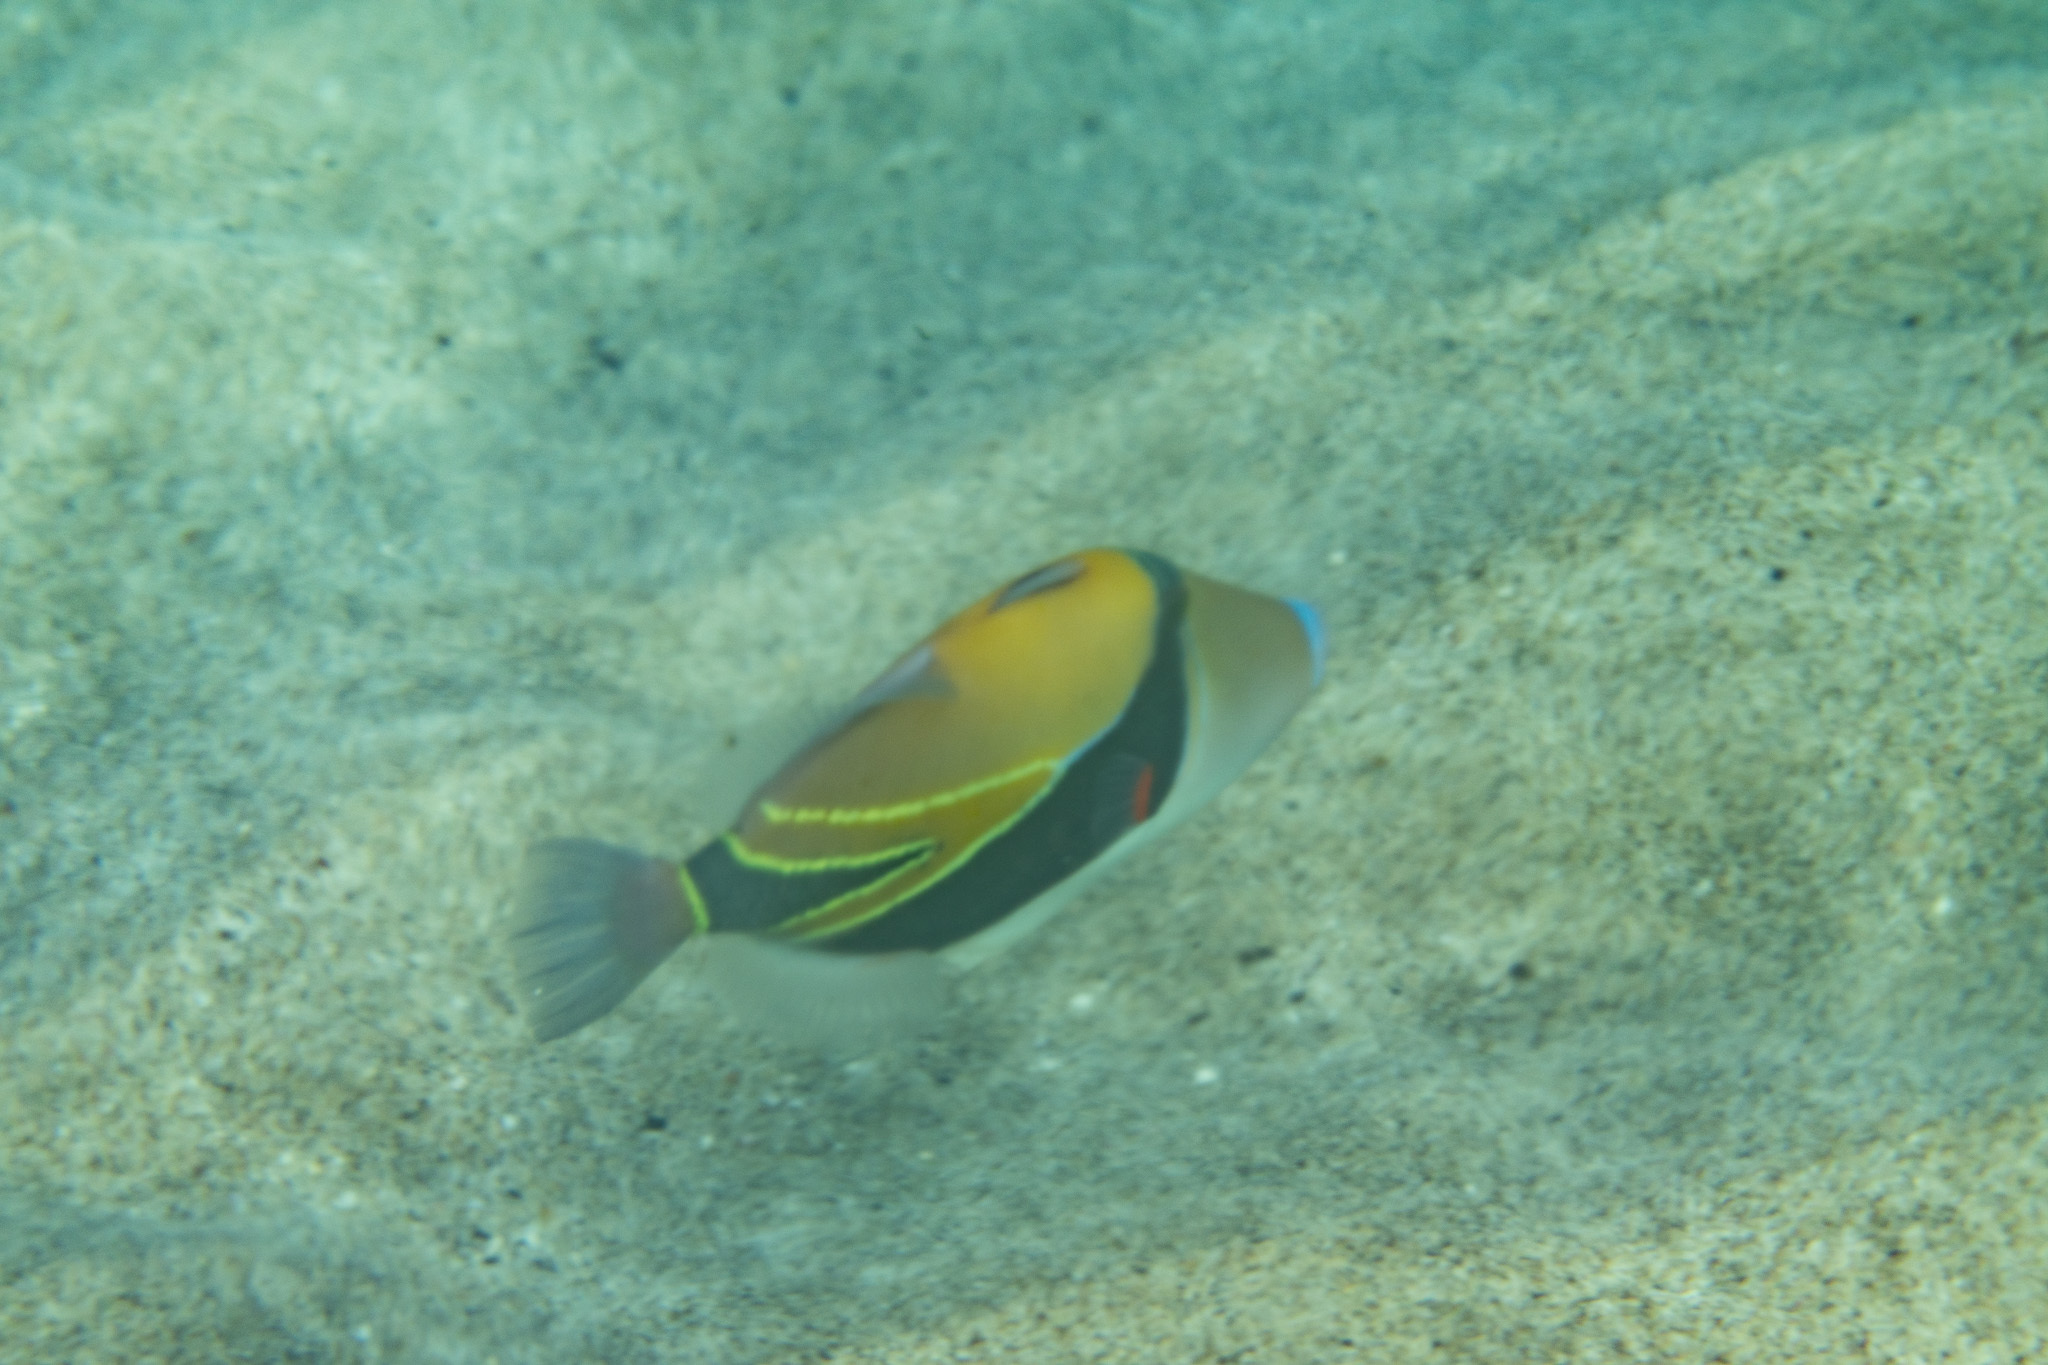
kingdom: Animalia
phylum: Chordata
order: Tetraodontiformes
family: Balistidae
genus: Rhinecanthus
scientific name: Rhinecanthus rectangulus
